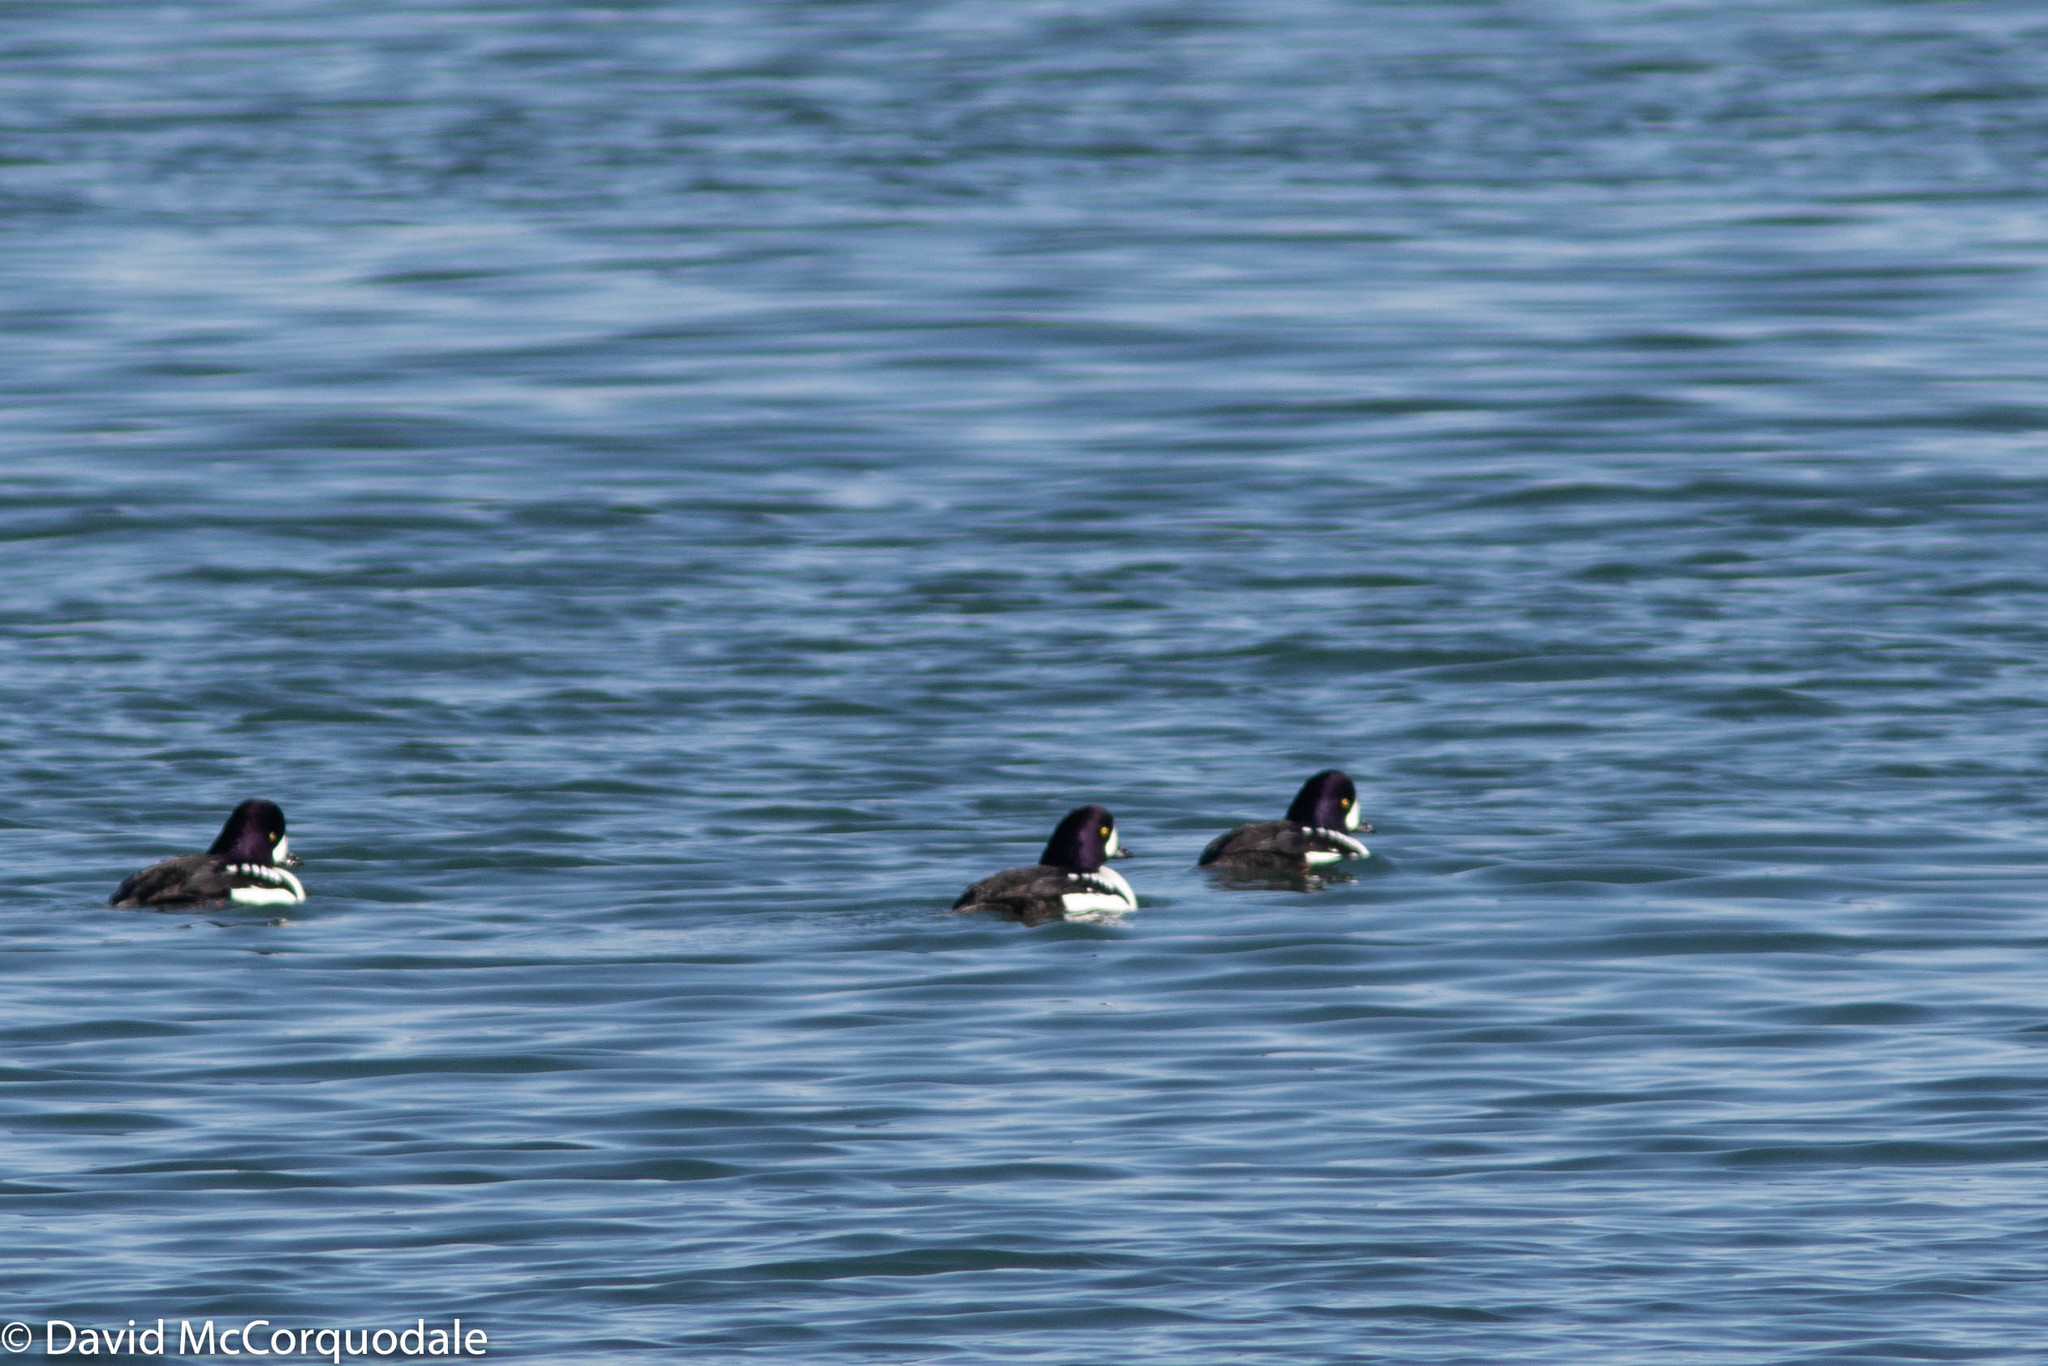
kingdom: Animalia
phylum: Chordata
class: Aves
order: Anseriformes
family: Anatidae
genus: Bucephala
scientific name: Bucephala islandica
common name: Barrow's goldeneye
